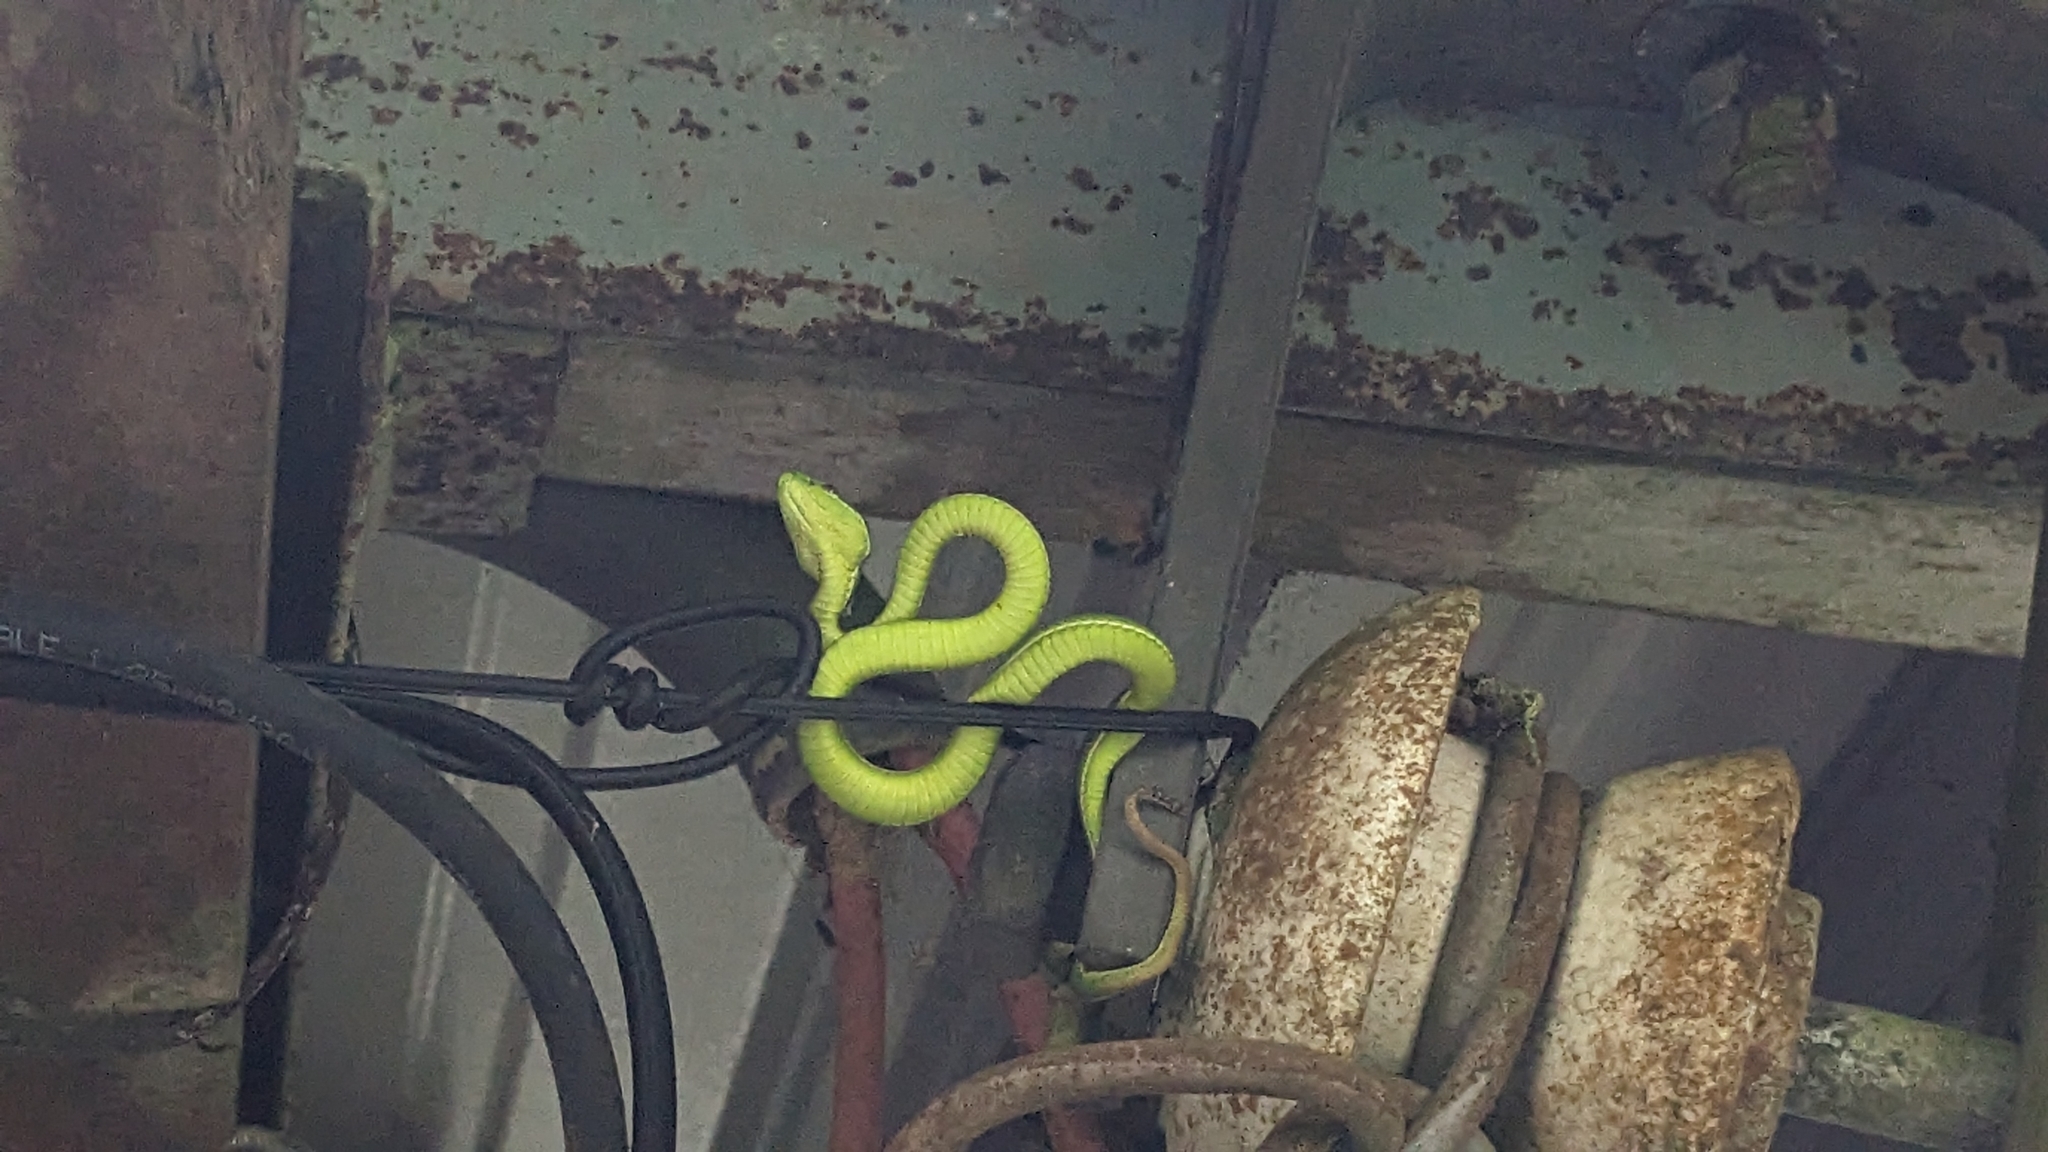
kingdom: Animalia
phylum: Chordata
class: Squamata
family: Viperidae
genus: Trimeresurus
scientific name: Trimeresurus stejnegeri
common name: Chen’s bamboo pit viper
